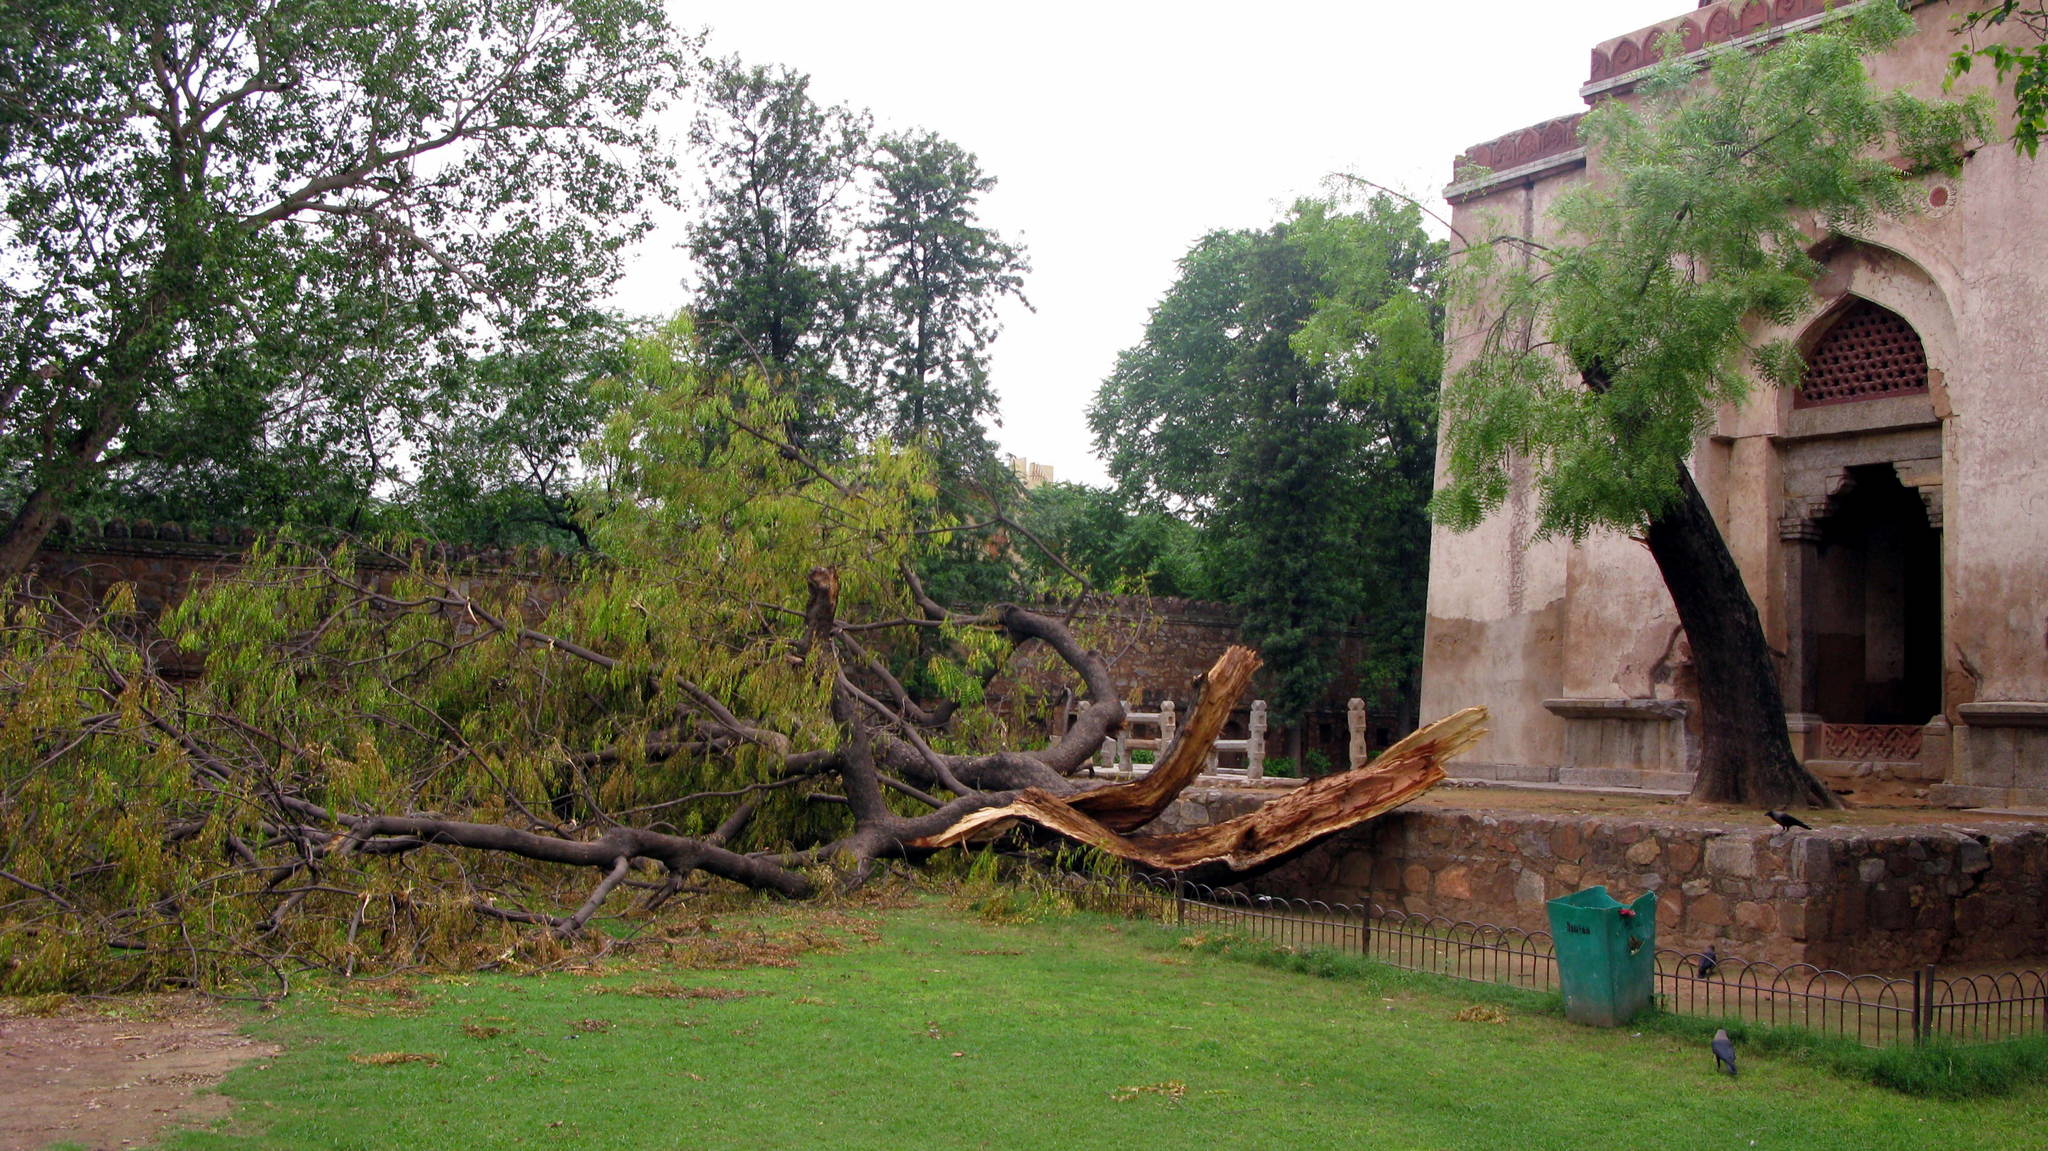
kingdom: Plantae
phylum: Tracheophyta
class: Magnoliopsida
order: Sapindales
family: Meliaceae
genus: Azadirachta
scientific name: Azadirachta indica
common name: Neem
